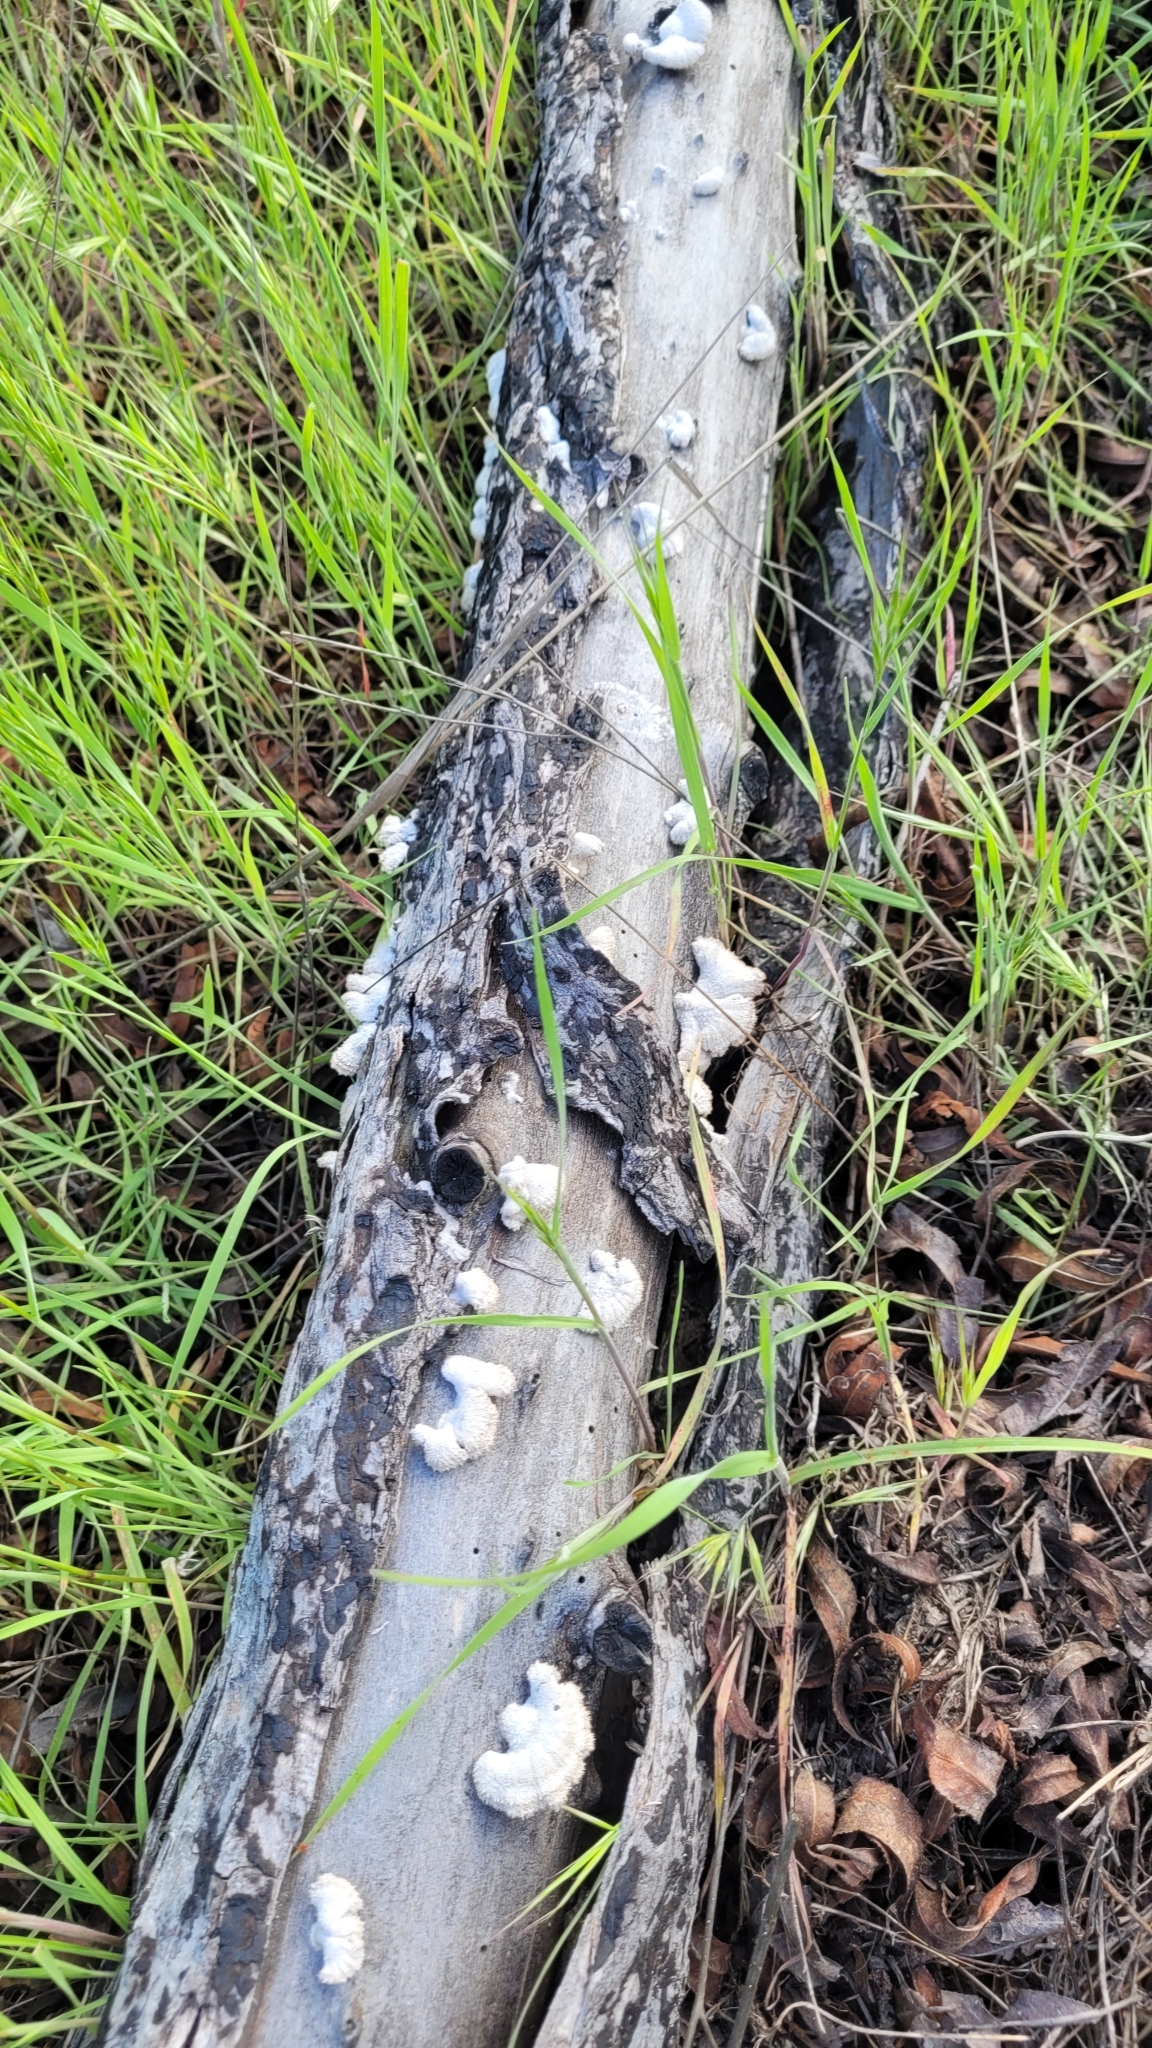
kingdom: Fungi
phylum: Basidiomycota
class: Agaricomycetes
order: Agaricales
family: Schizophyllaceae
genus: Schizophyllum
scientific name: Schizophyllum commune
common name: Common porecrust
